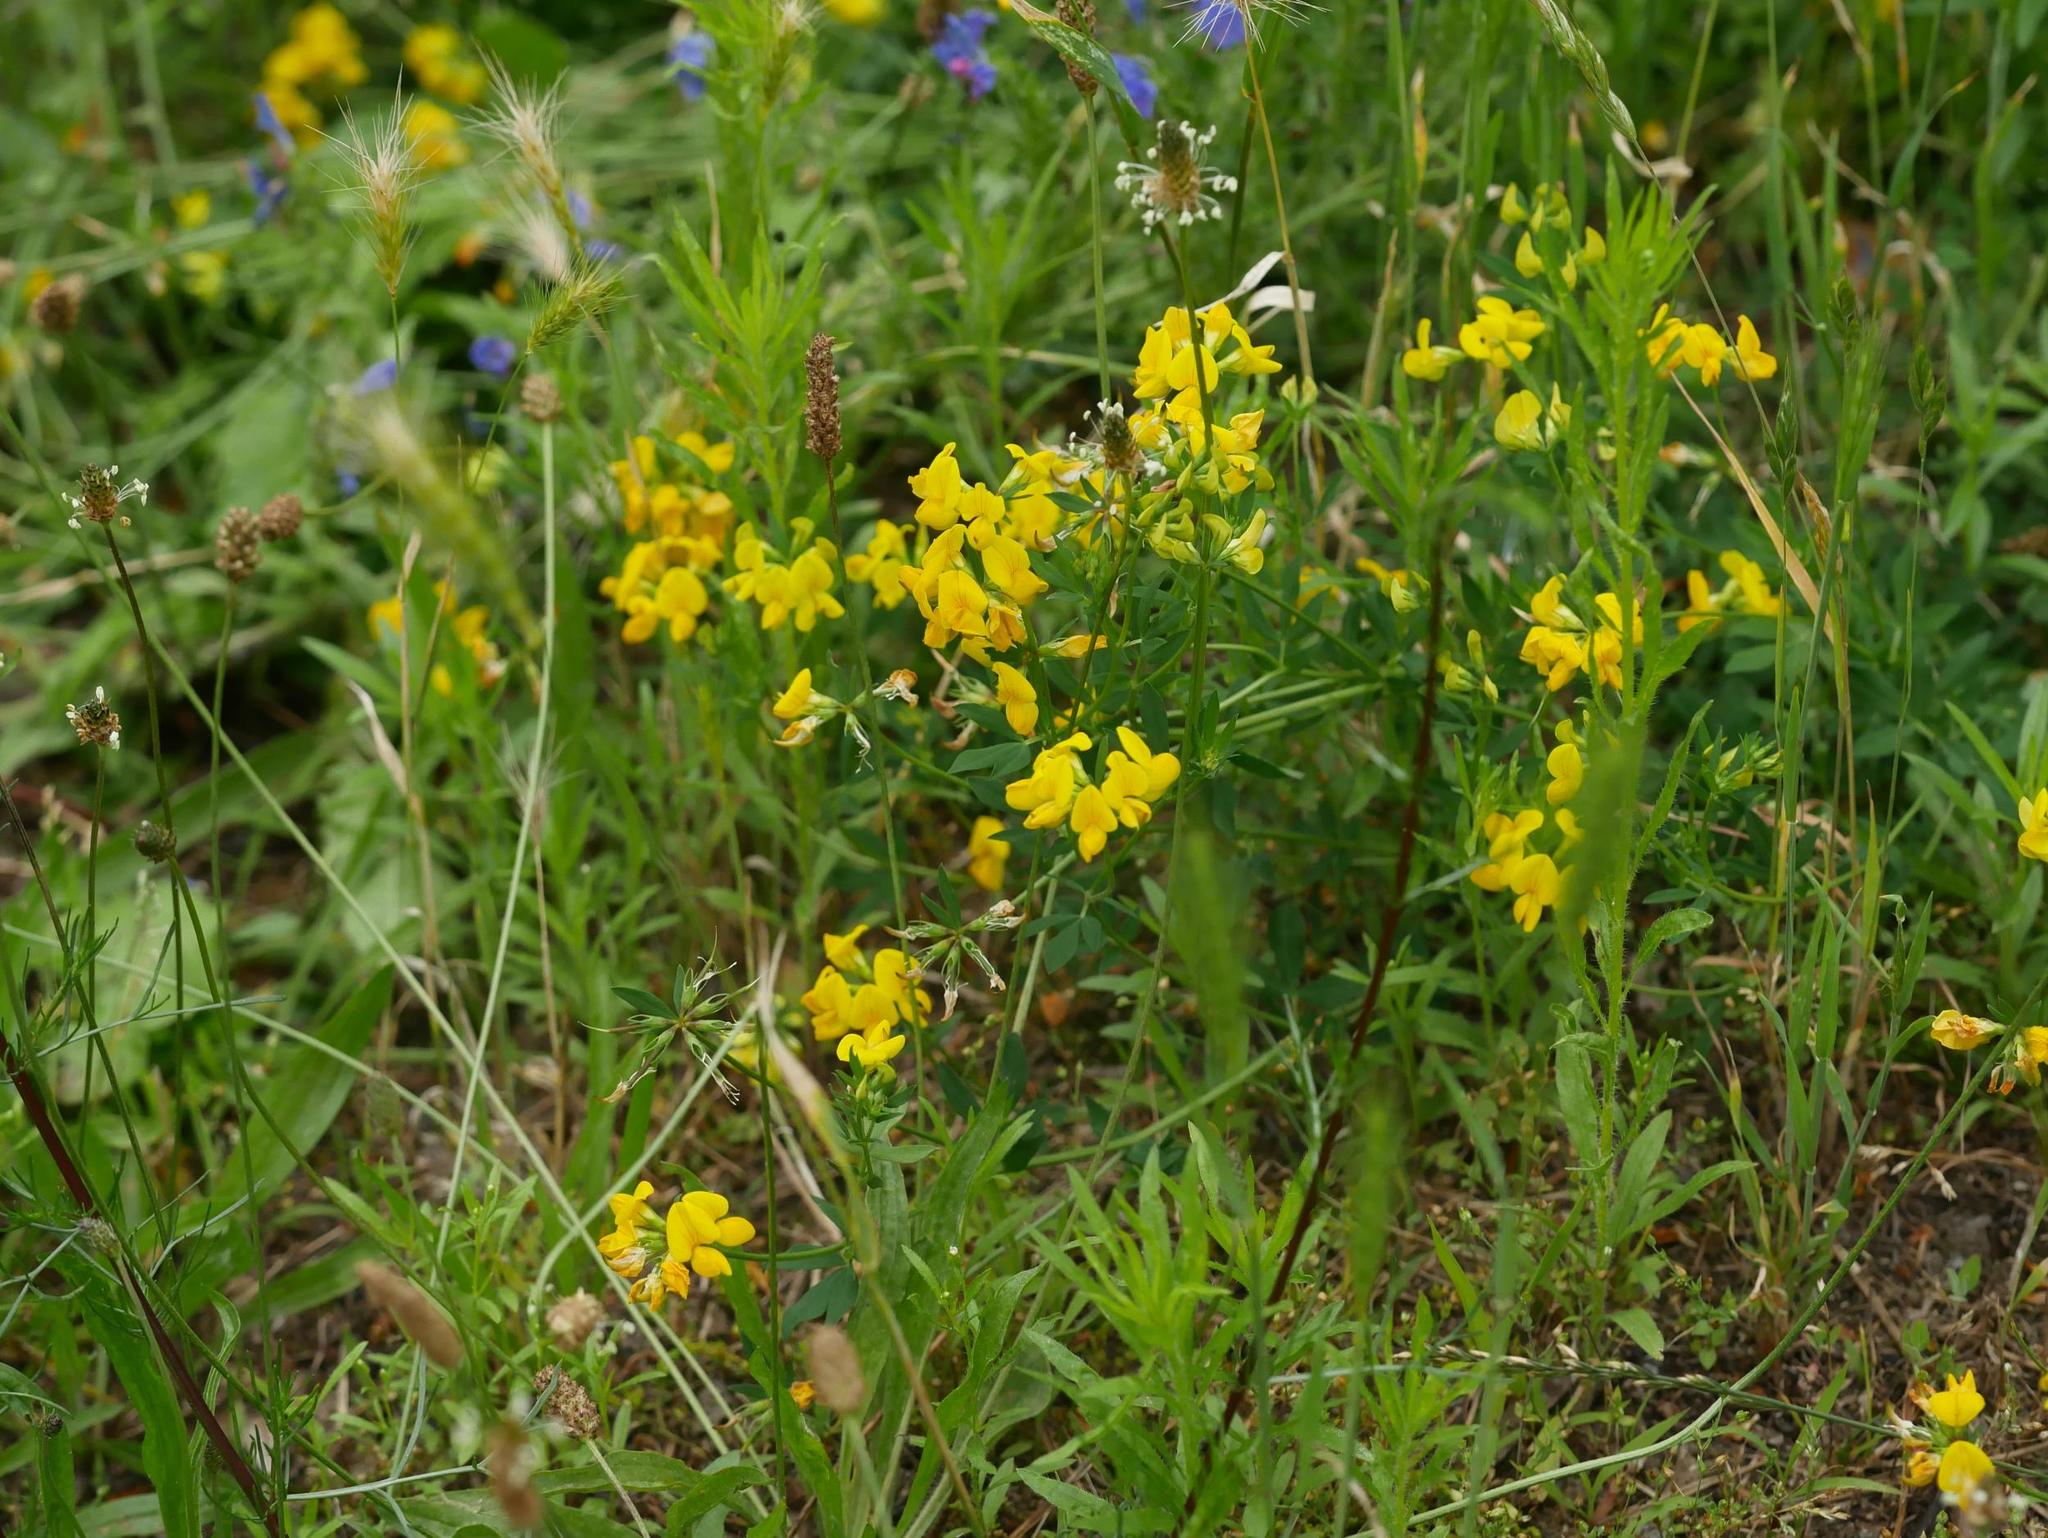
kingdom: Plantae
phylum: Tracheophyta
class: Magnoliopsida
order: Fabales
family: Fabaceae
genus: Lotus
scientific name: Lotus corniculatus
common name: Common bird's-foot-trefoil
